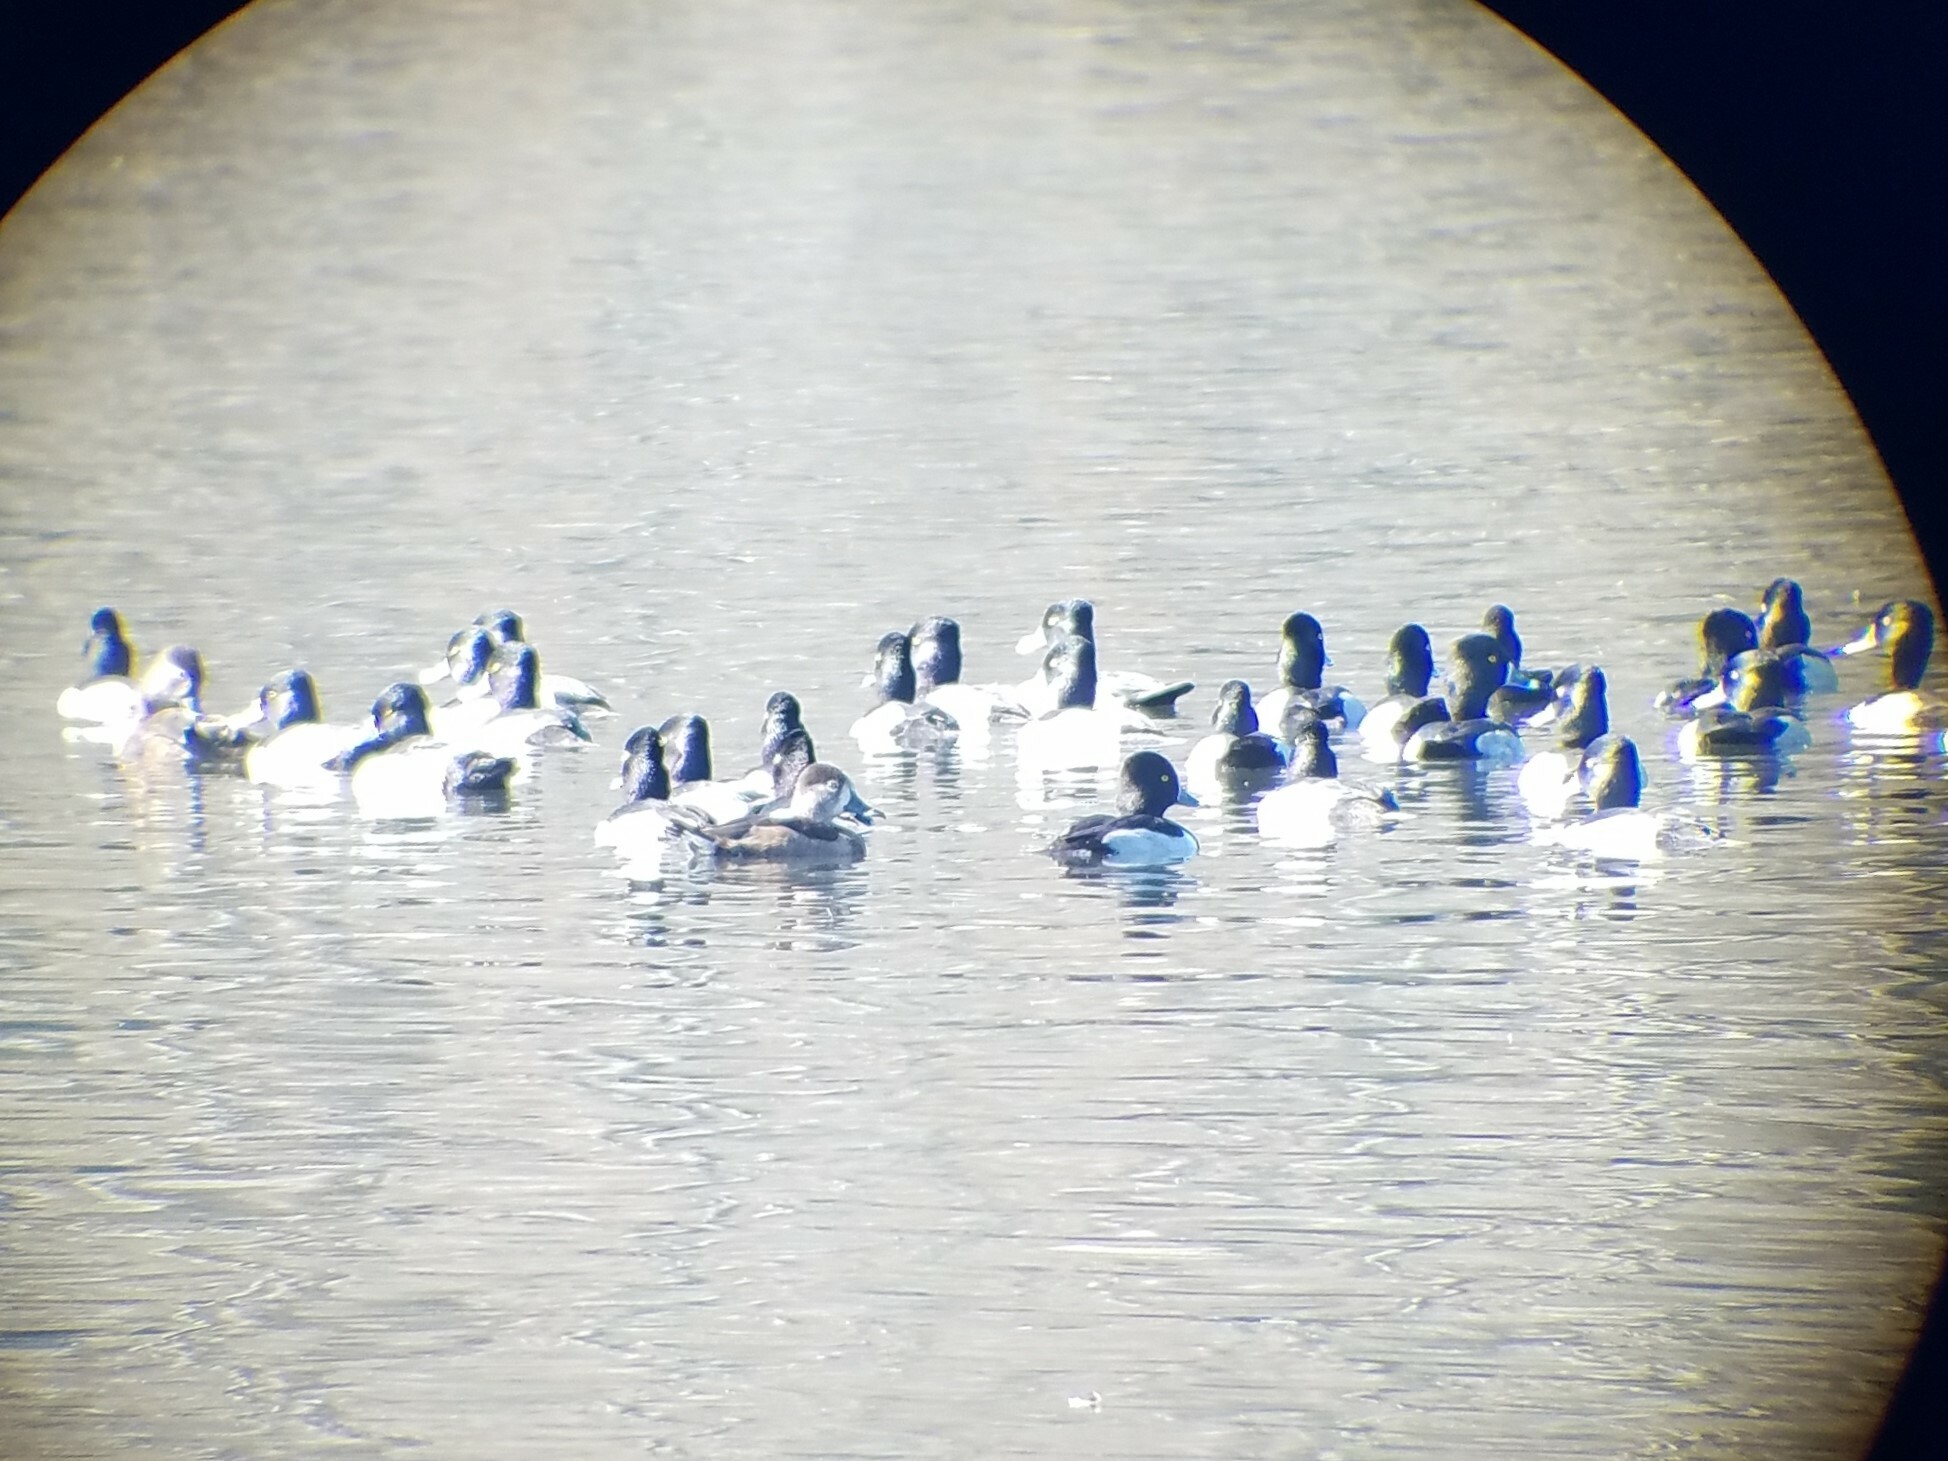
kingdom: Animalia
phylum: Chordata
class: Aves
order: Anseriformes
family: Anatidae
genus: Aythya
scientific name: Aythya collaris
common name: Ring-necked duck
